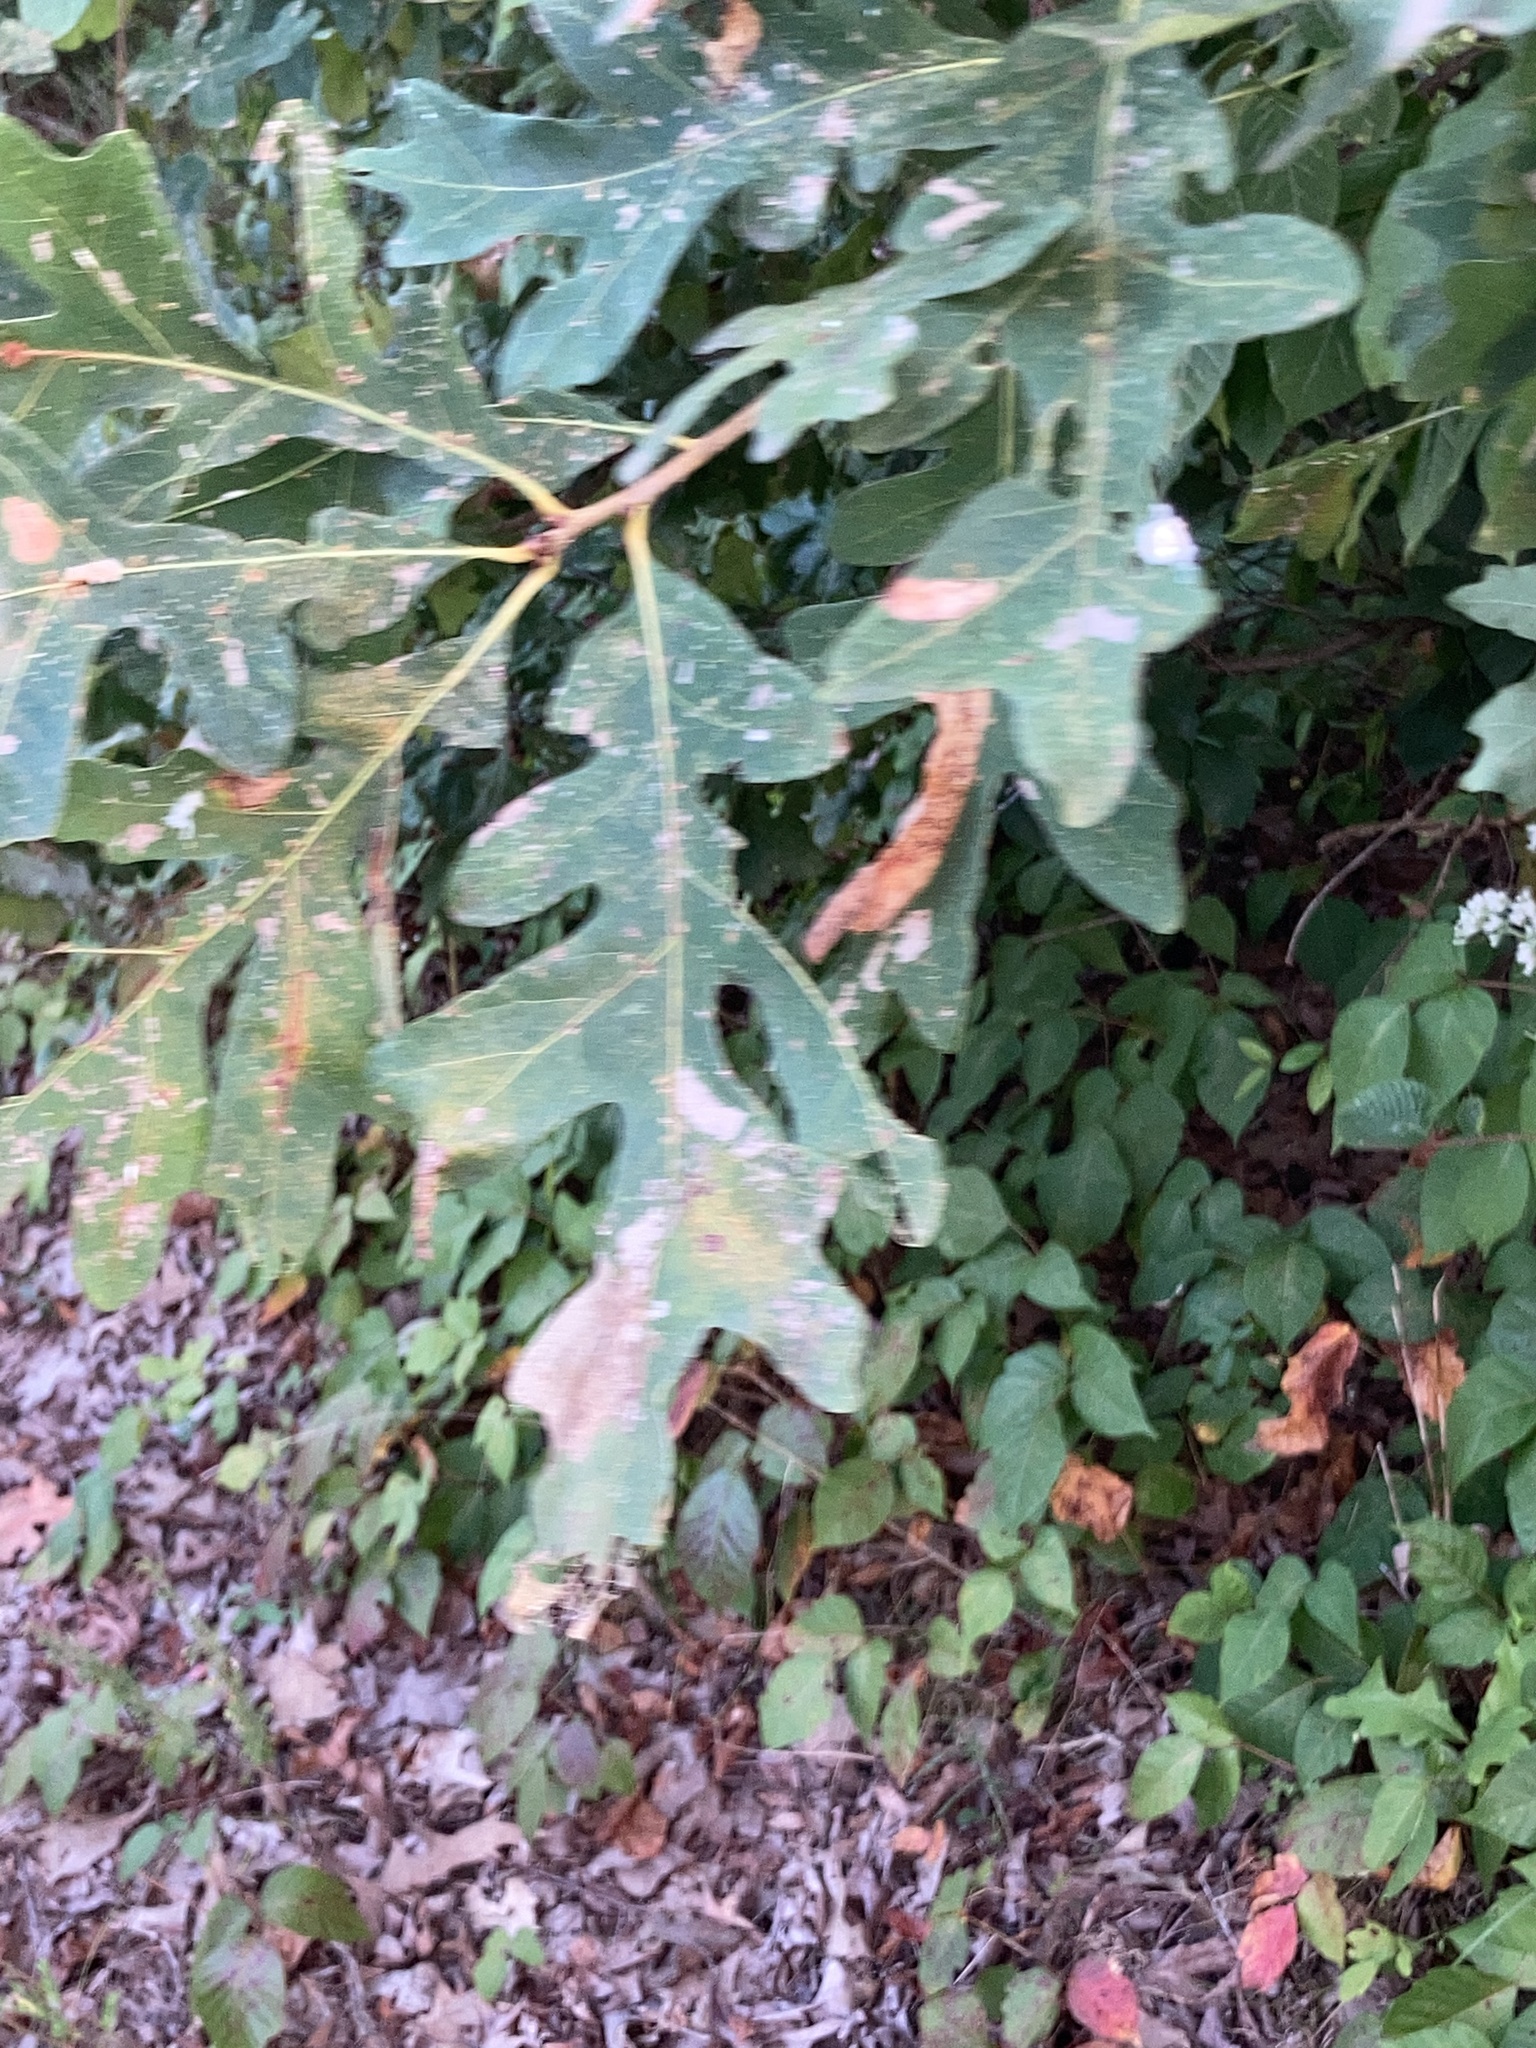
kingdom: Plantae
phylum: Tracheophyta
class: Magnoliopsida
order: Fagales
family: Fagaceae
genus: Quercus
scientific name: Quercus alba
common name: White oak
